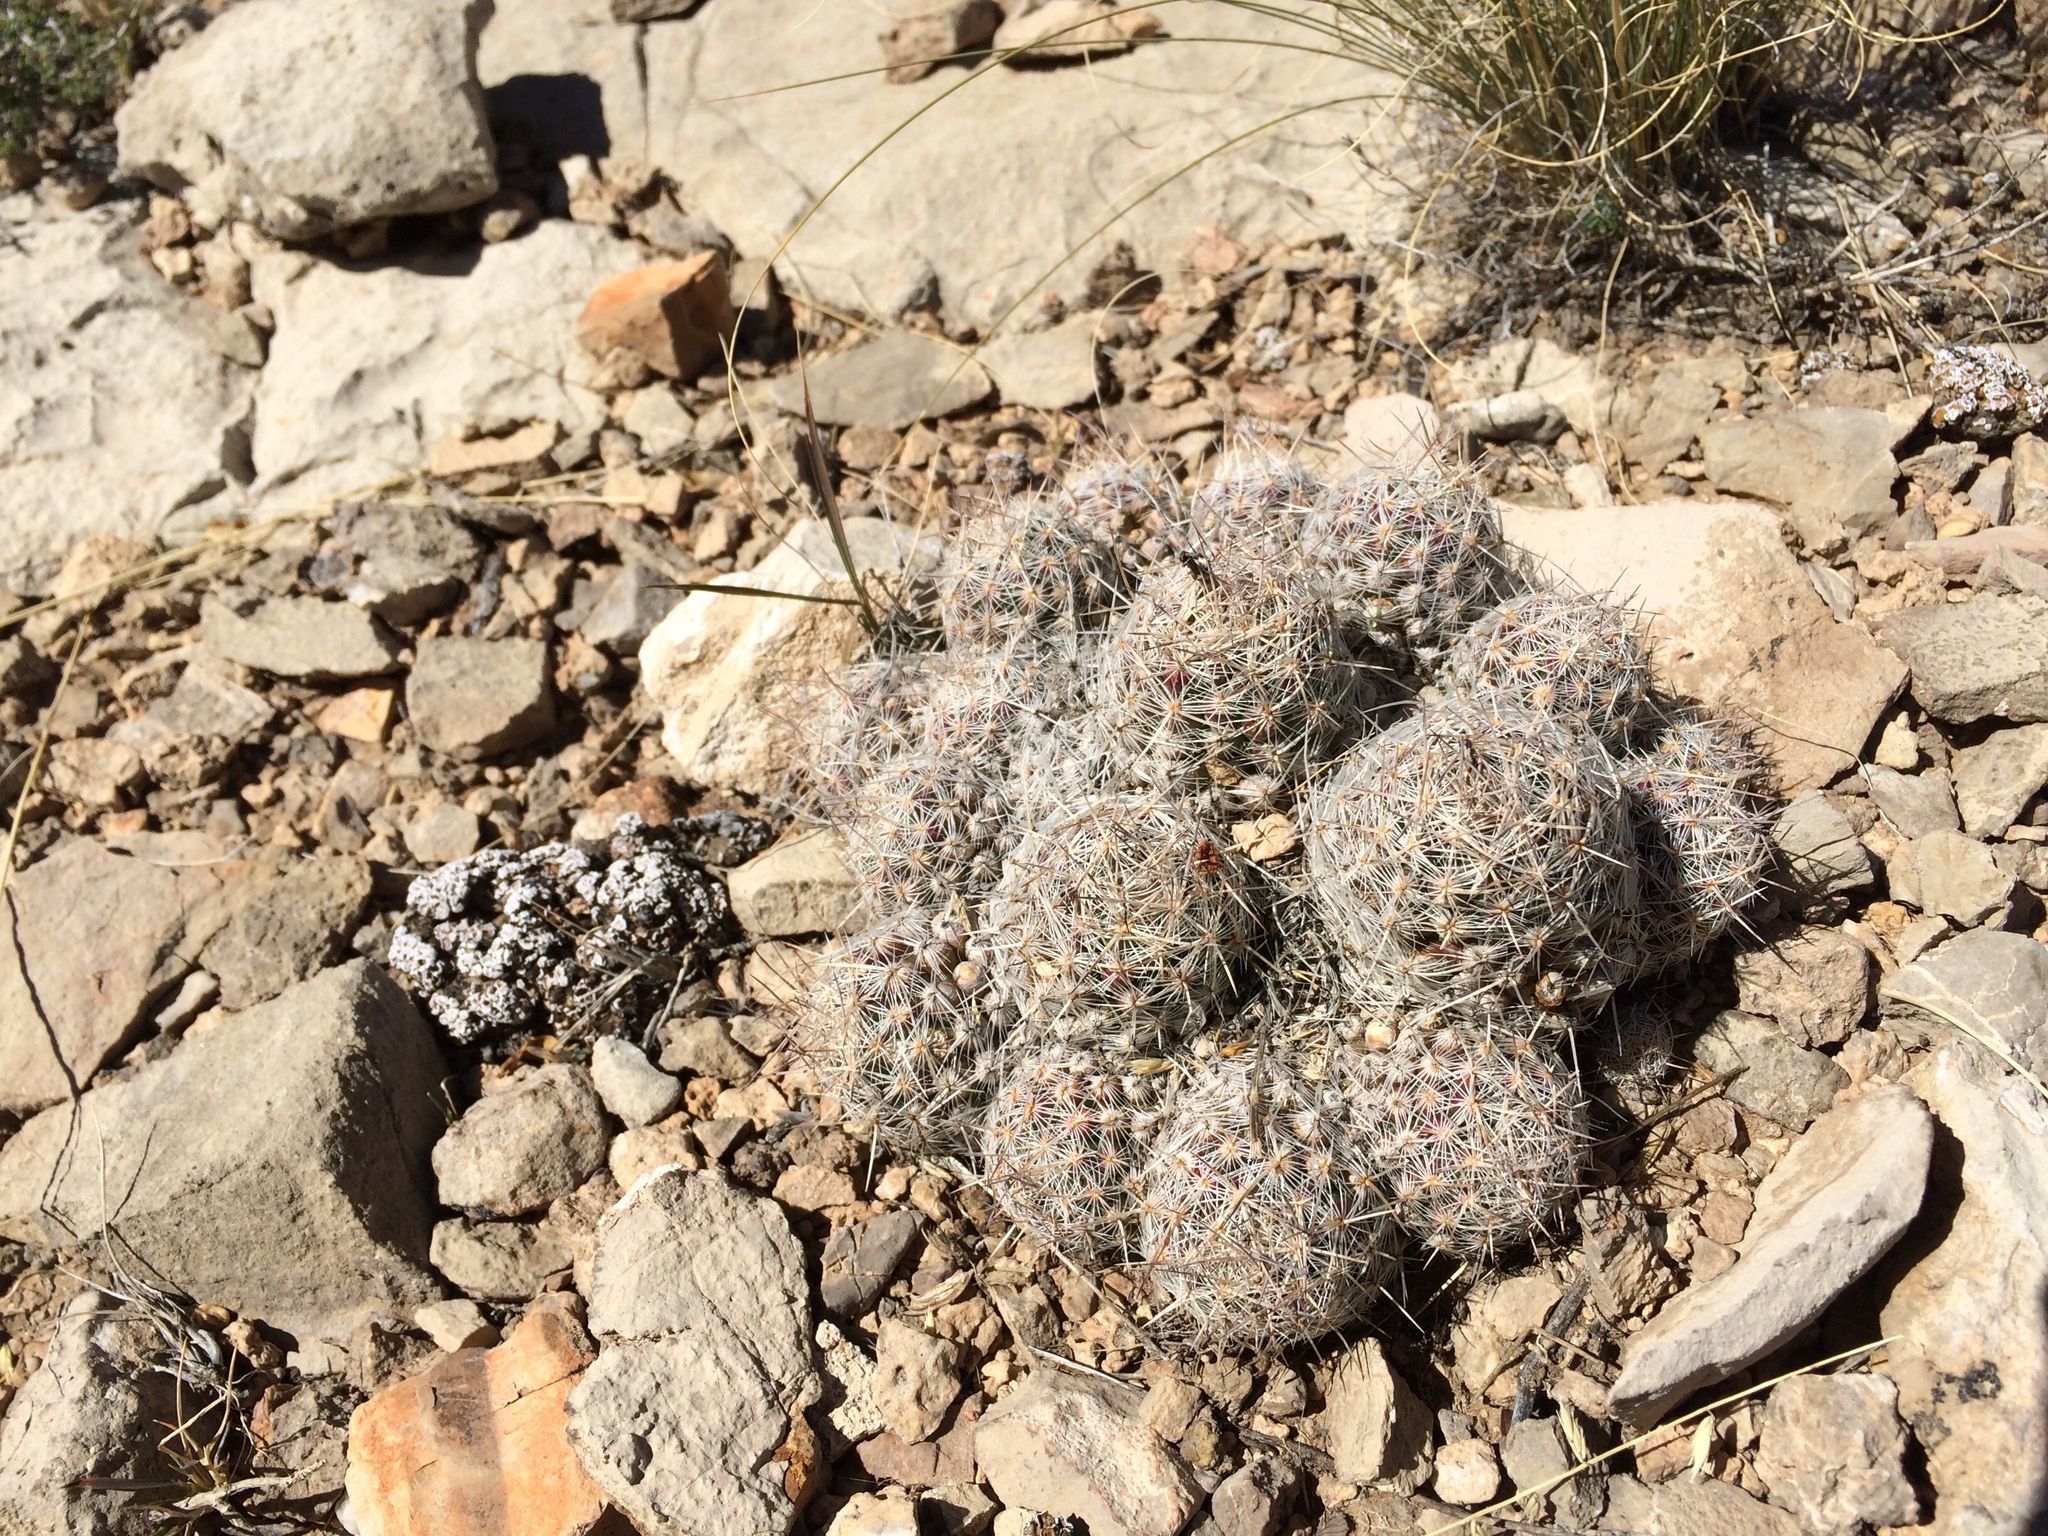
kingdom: Plantae
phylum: Tracheophyta
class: Magnoliopsida
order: Caryophyllales
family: Cactaceae
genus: Pelecyphora
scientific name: Pelecyphora tuberculosa
